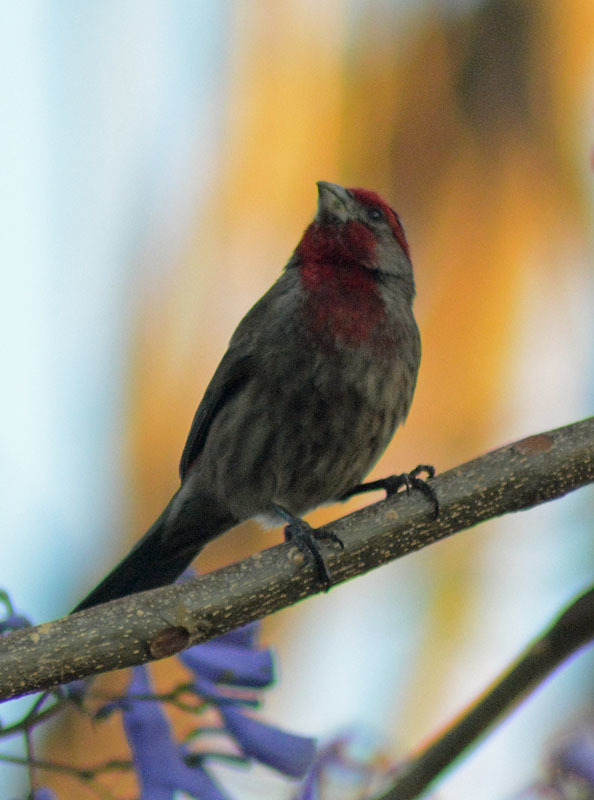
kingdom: Animalia
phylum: Chordata
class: Aves
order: Passeriformes
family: Fringillidae
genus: Haemorhous
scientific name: Haemorhous mexicanus
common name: House finch
